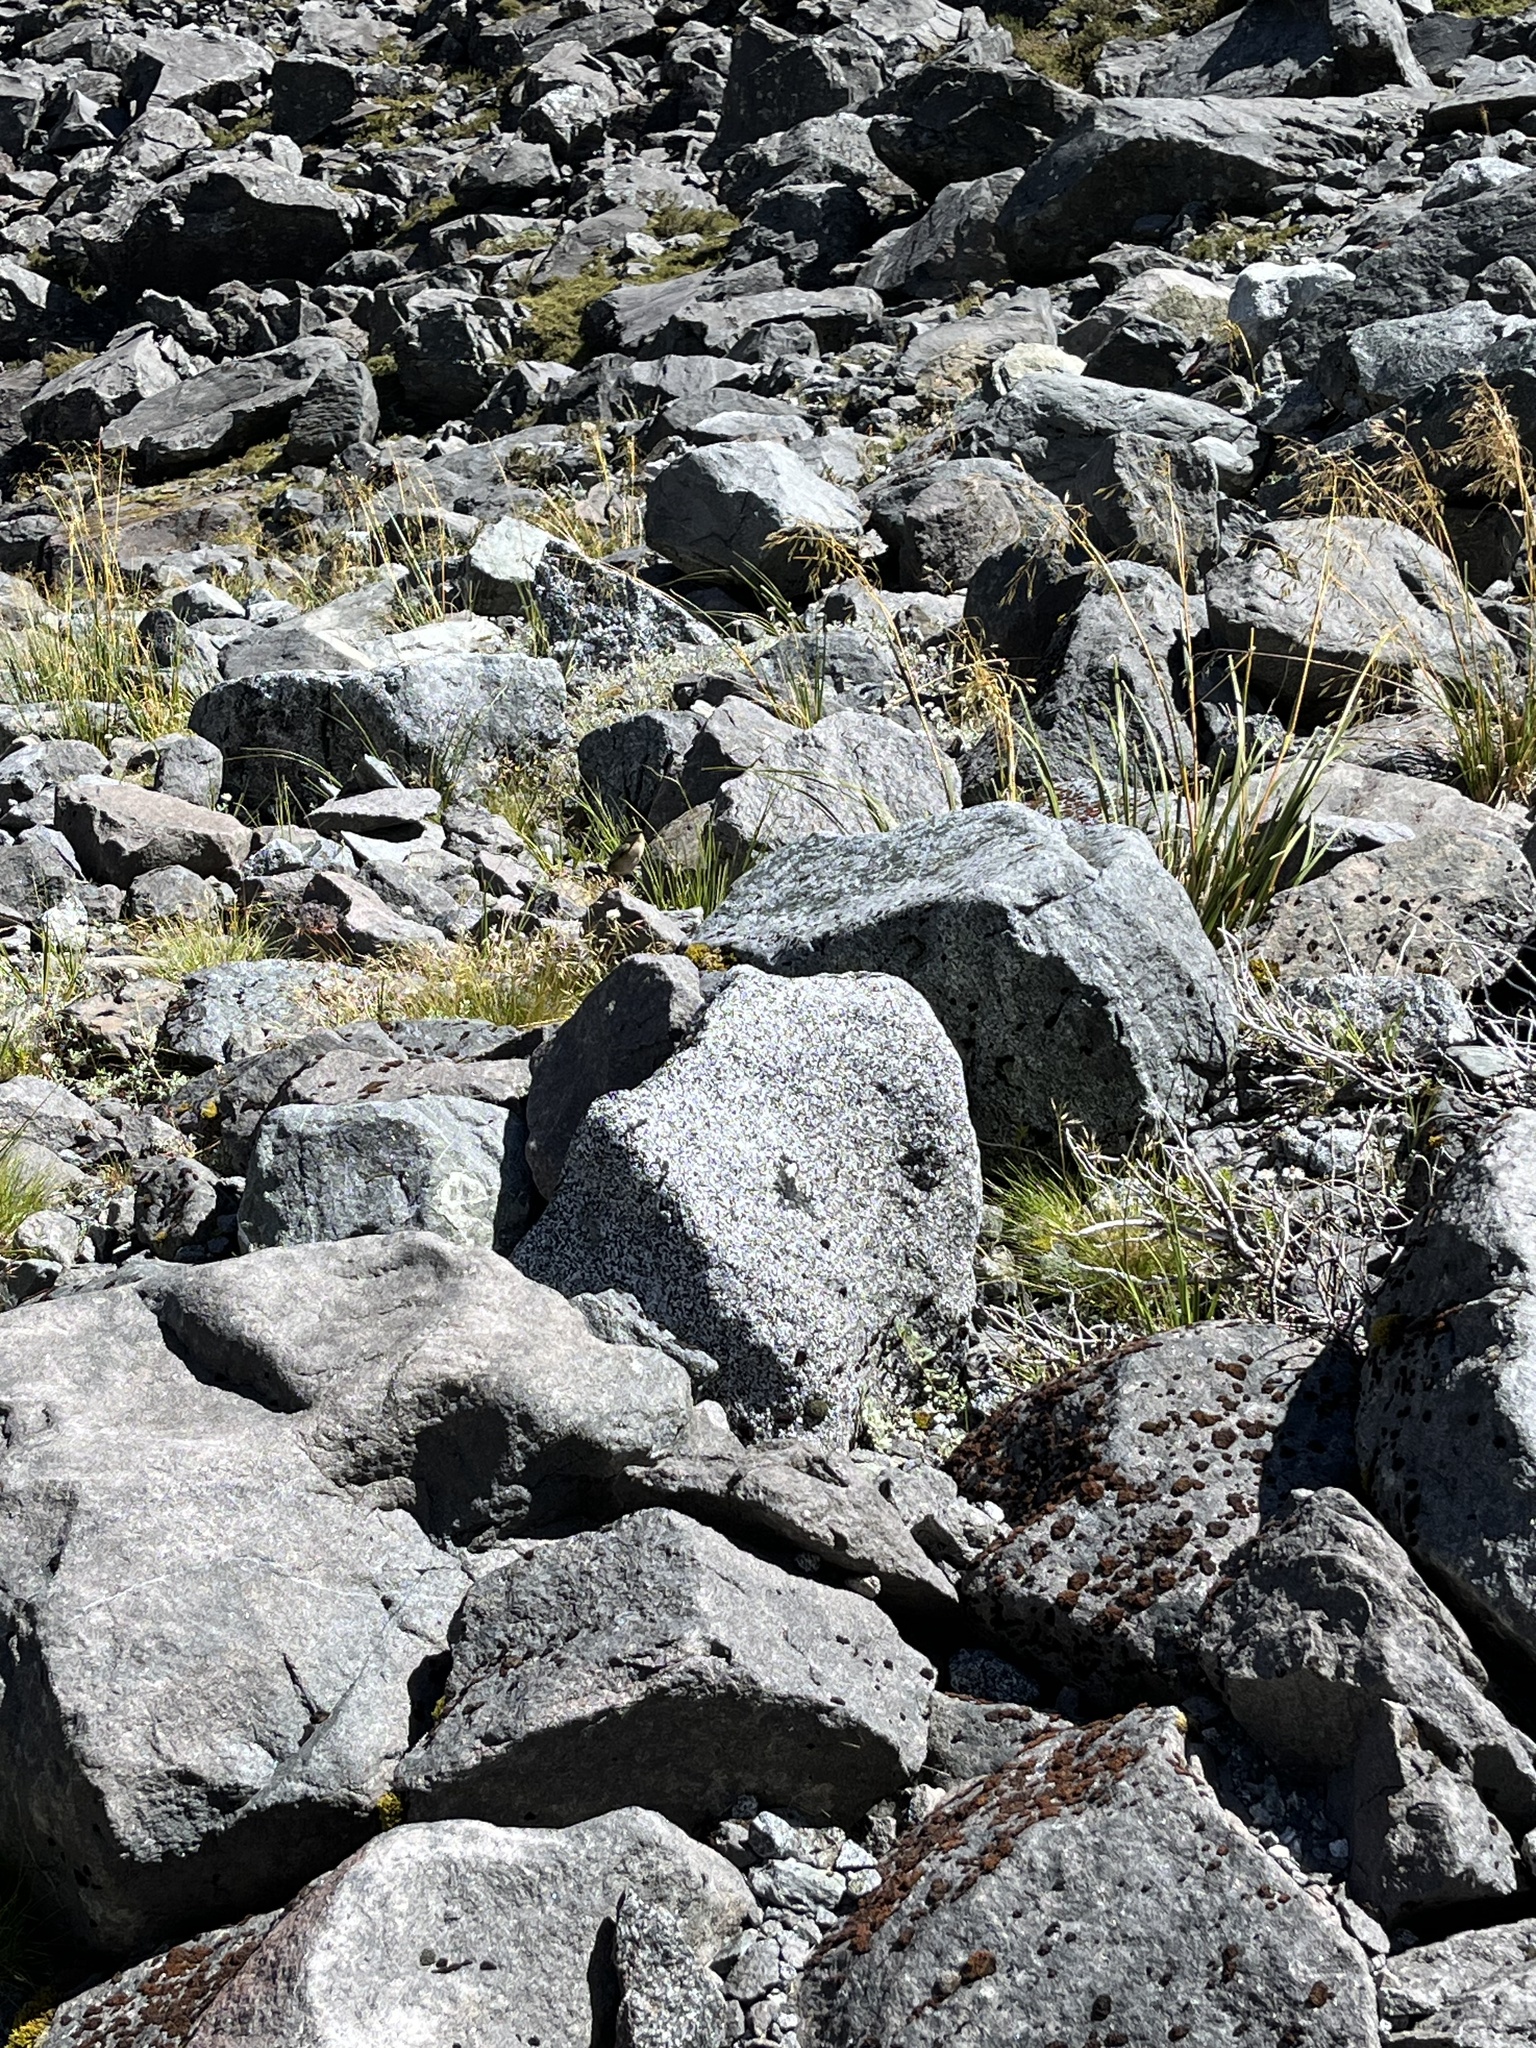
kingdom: Animalia
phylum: Chordata
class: Aves
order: Passeriformes
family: Acanthisittidae
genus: Xenicus
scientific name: Xenicus gilviventris
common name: New zealand rockwren
